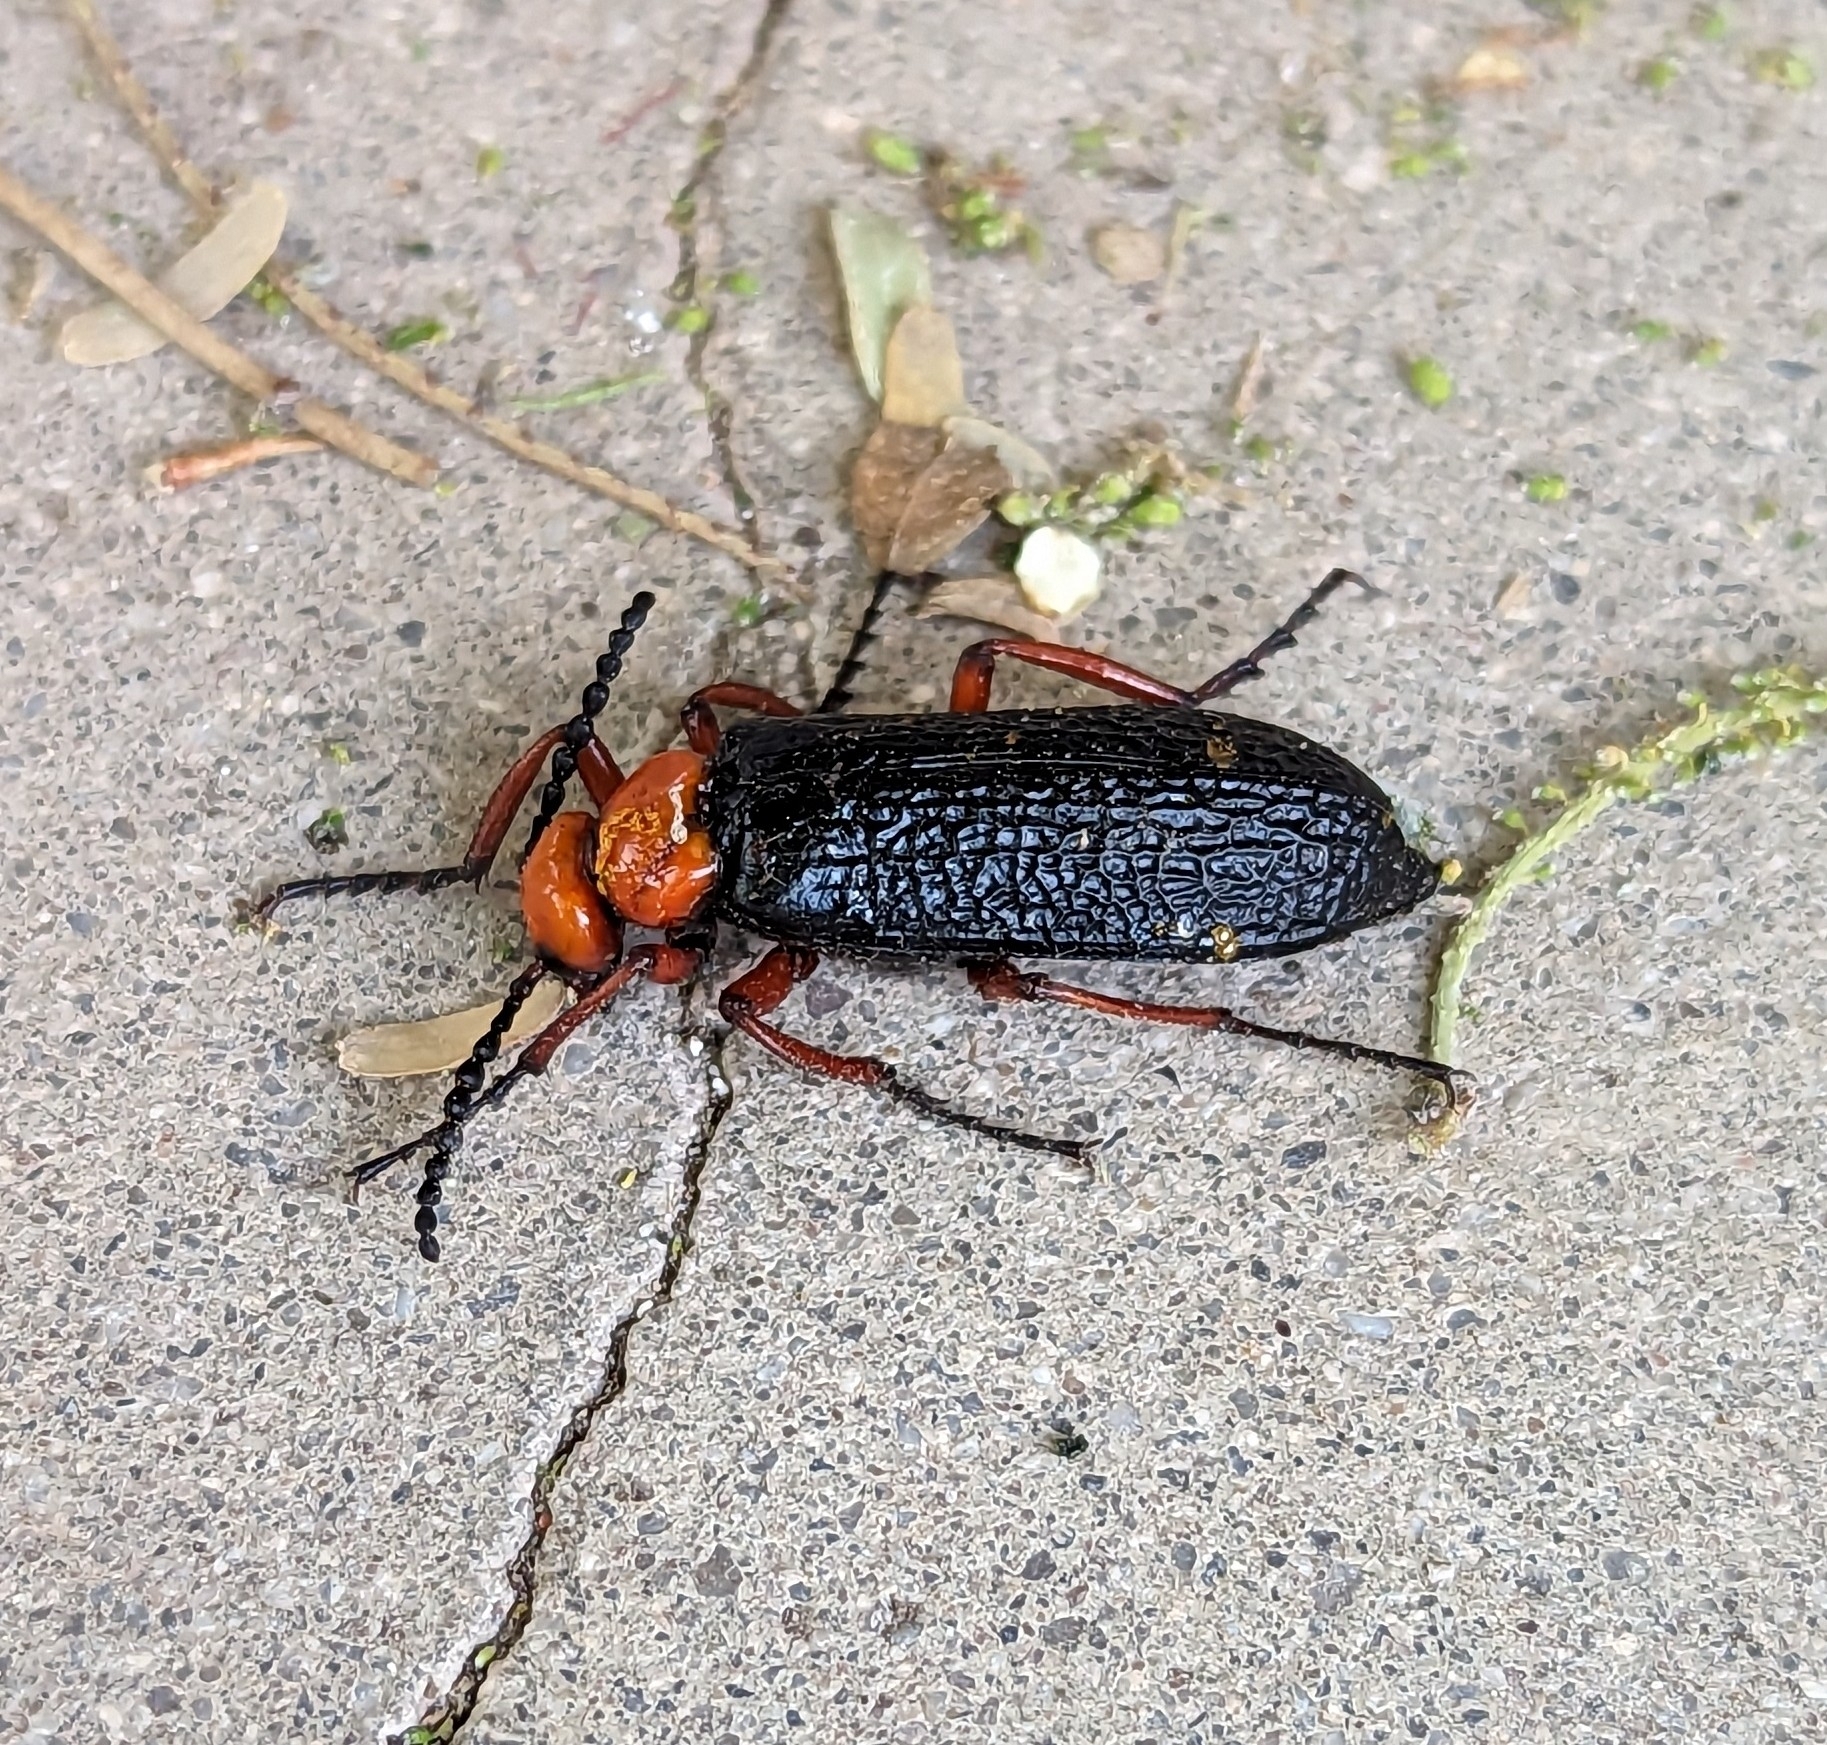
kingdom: Animalia
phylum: Arthropoda
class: Insecta
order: Coleoptera
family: Meloidae
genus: Lytta
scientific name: Lytta magister
